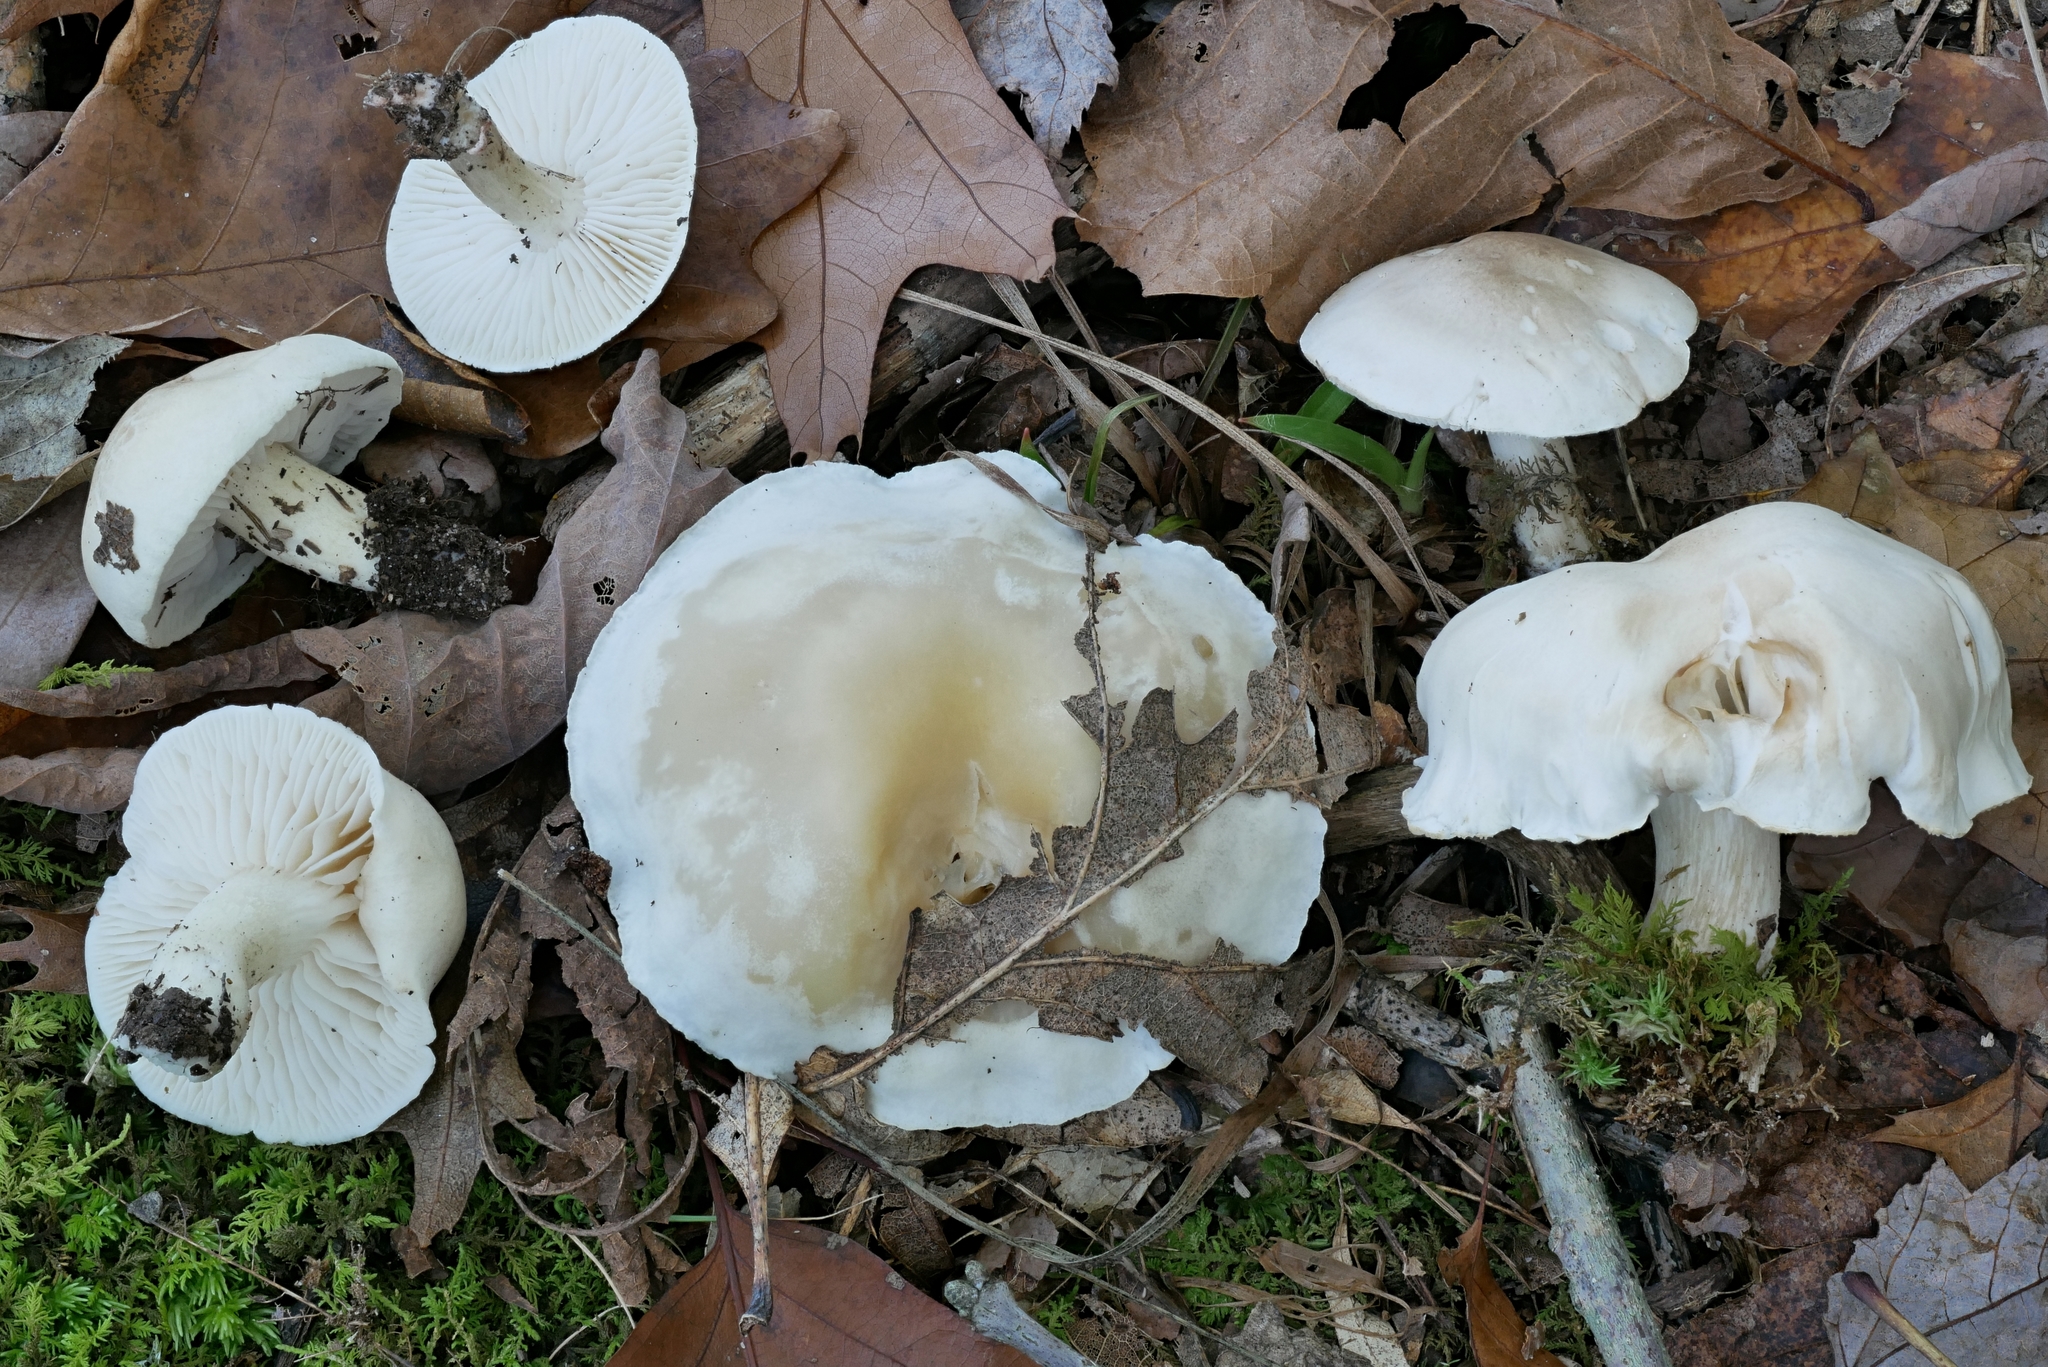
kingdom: Fungi
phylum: Basidiomycota
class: Agaricomycetes
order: Agaricales
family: Tricholomataceae
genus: Tricholoma
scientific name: Tricholoma
